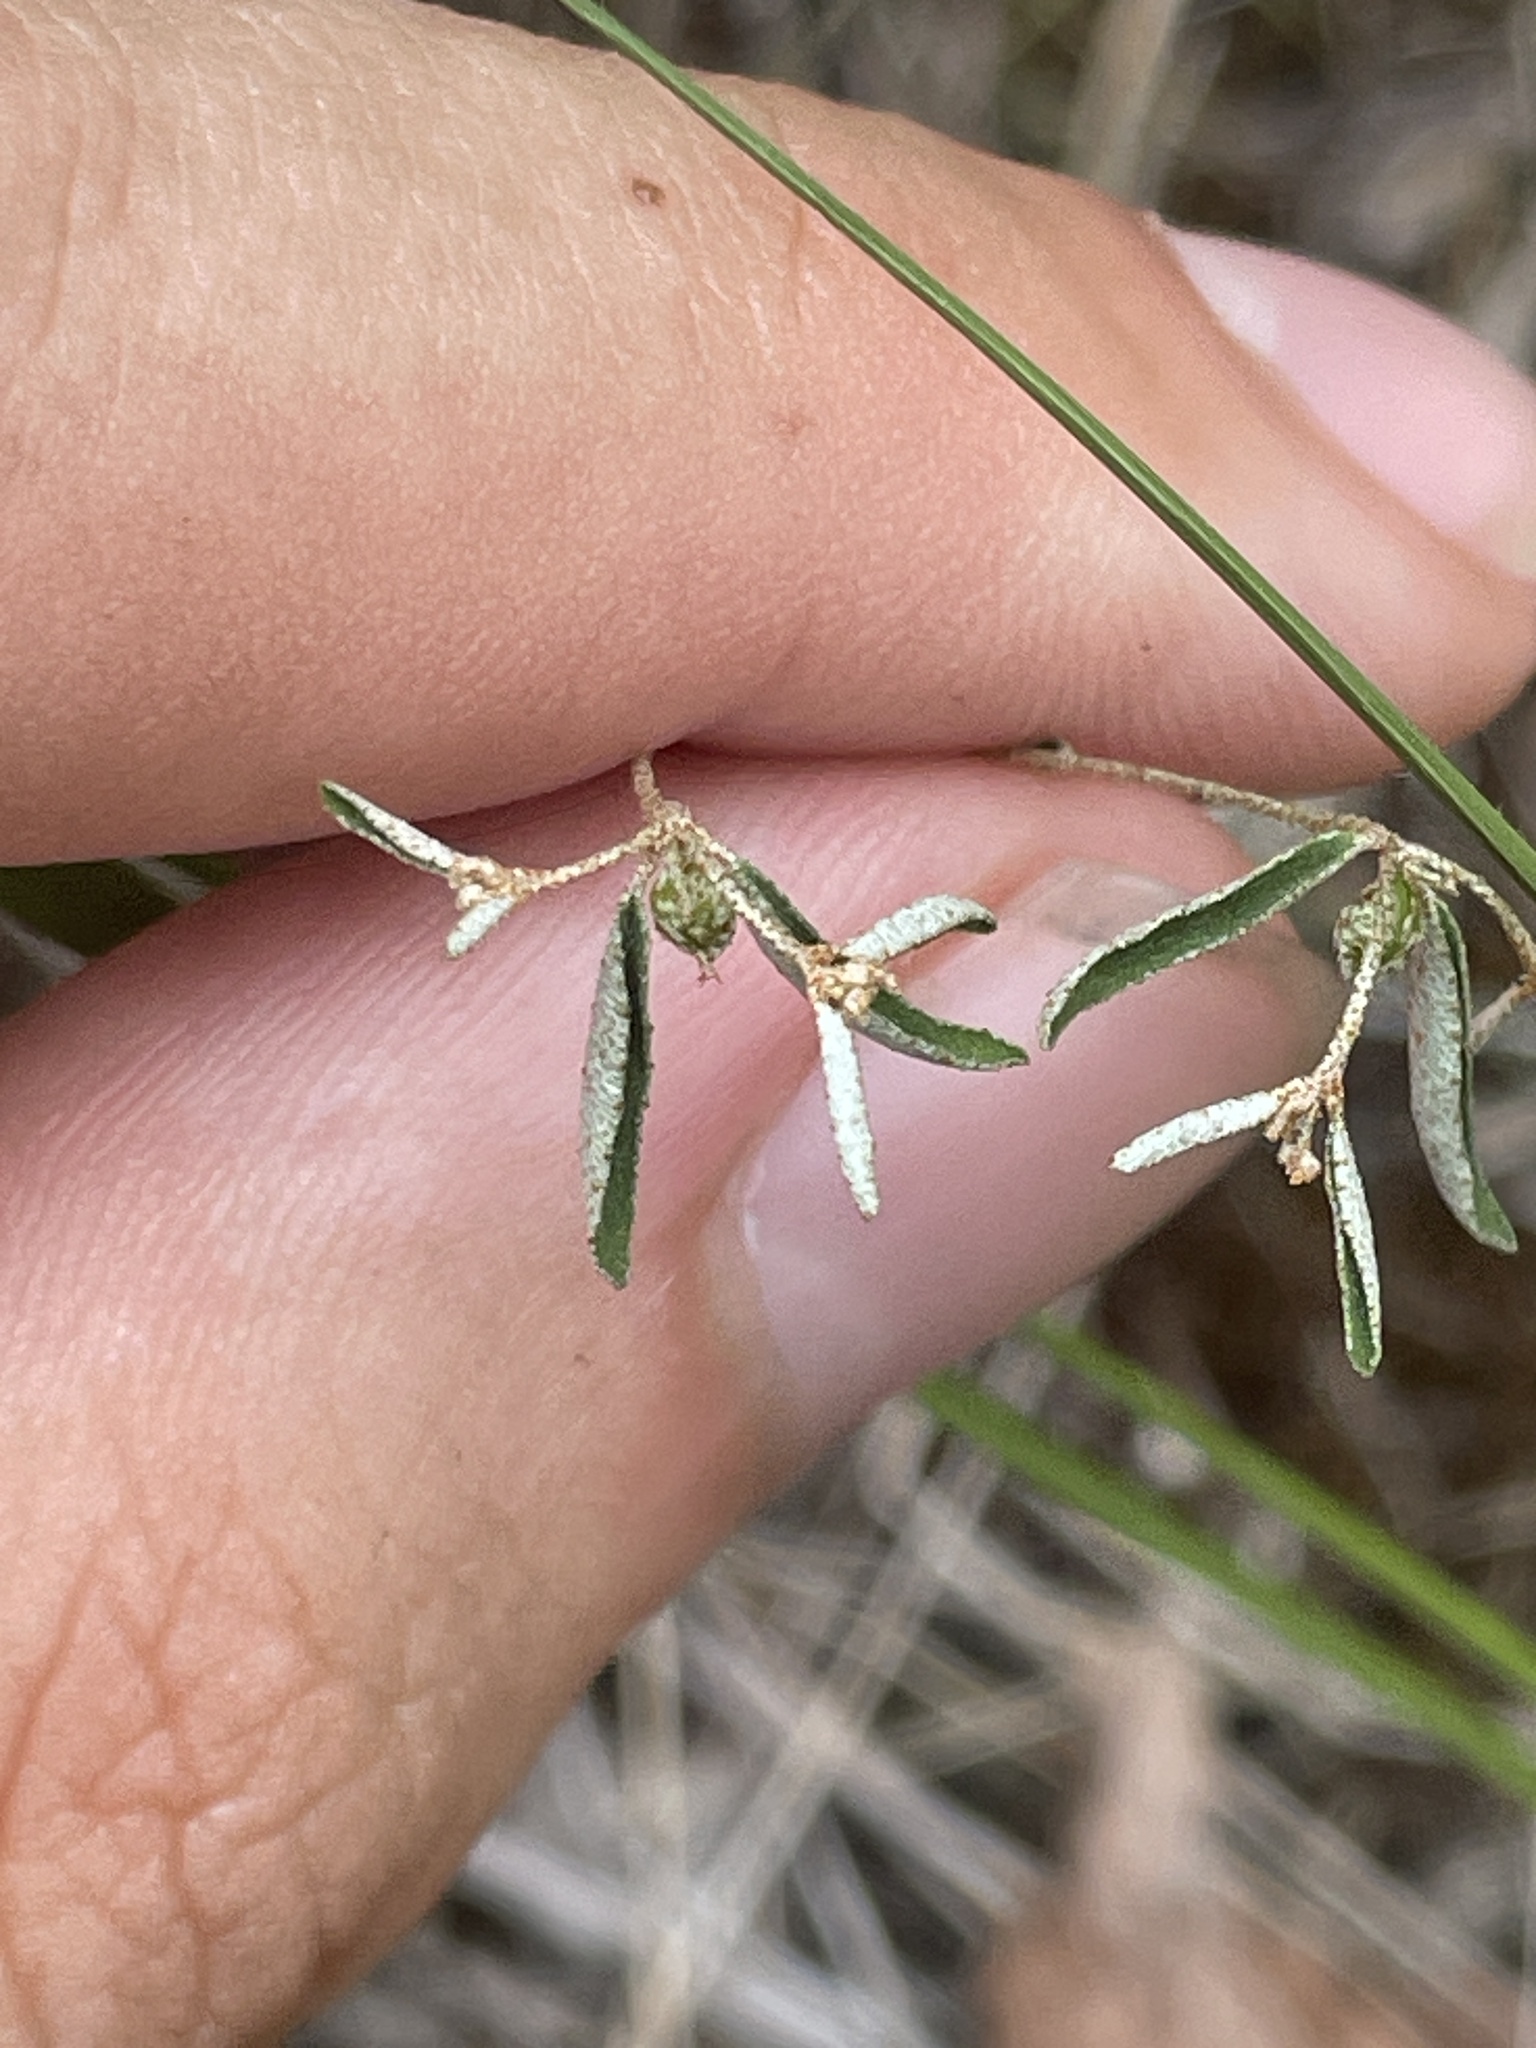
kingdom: Plantae
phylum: Tracheophyta
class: Magnoliopsida
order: Malpighiales
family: Euphorbiaceae
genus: Croton
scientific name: Croton michauxii
